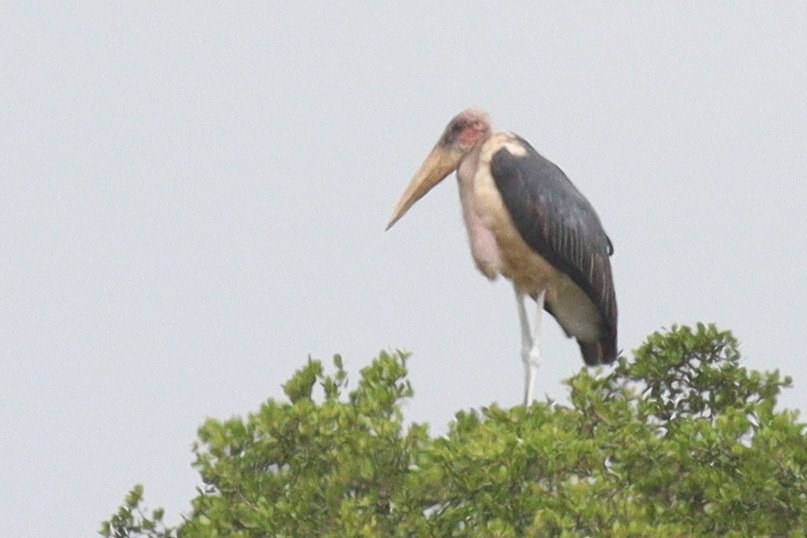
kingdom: Animalia
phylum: Chordata
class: Aves
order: Ciconiiformes
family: Ciconiidae
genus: Leptoptilos
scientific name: Leptoptilos crumenifer
